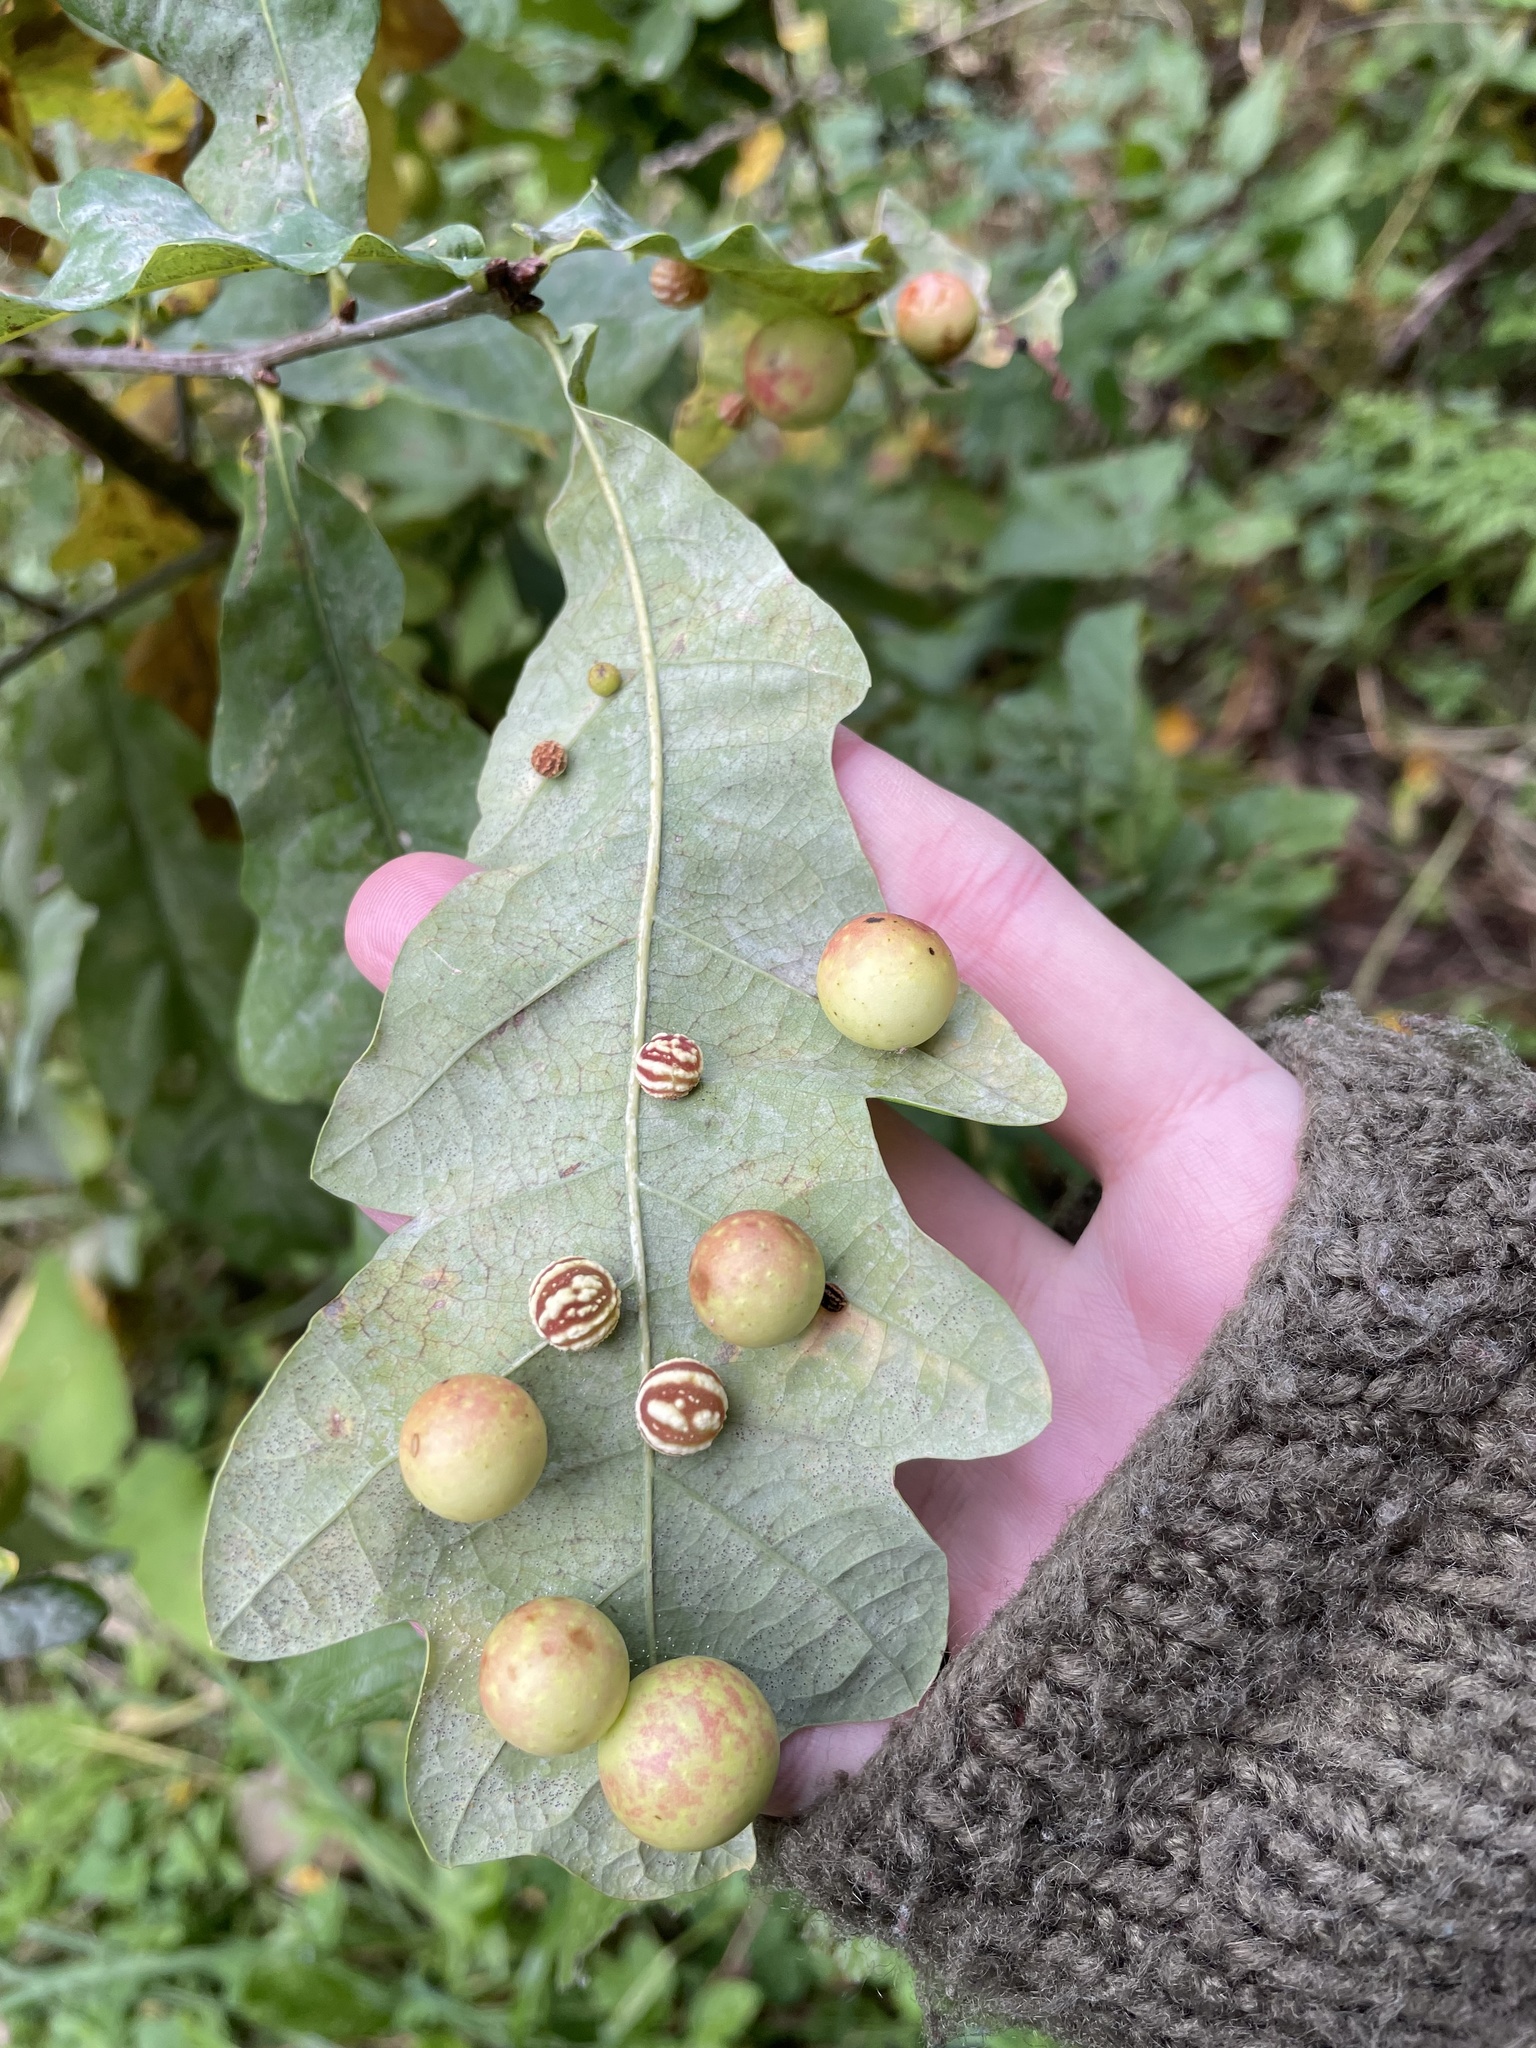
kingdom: Animalia
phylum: Arthropoda
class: Insecta
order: Hymenoptera
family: Cynipidae
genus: Cynips
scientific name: Cynips quercusfolii
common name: Cherry gall
